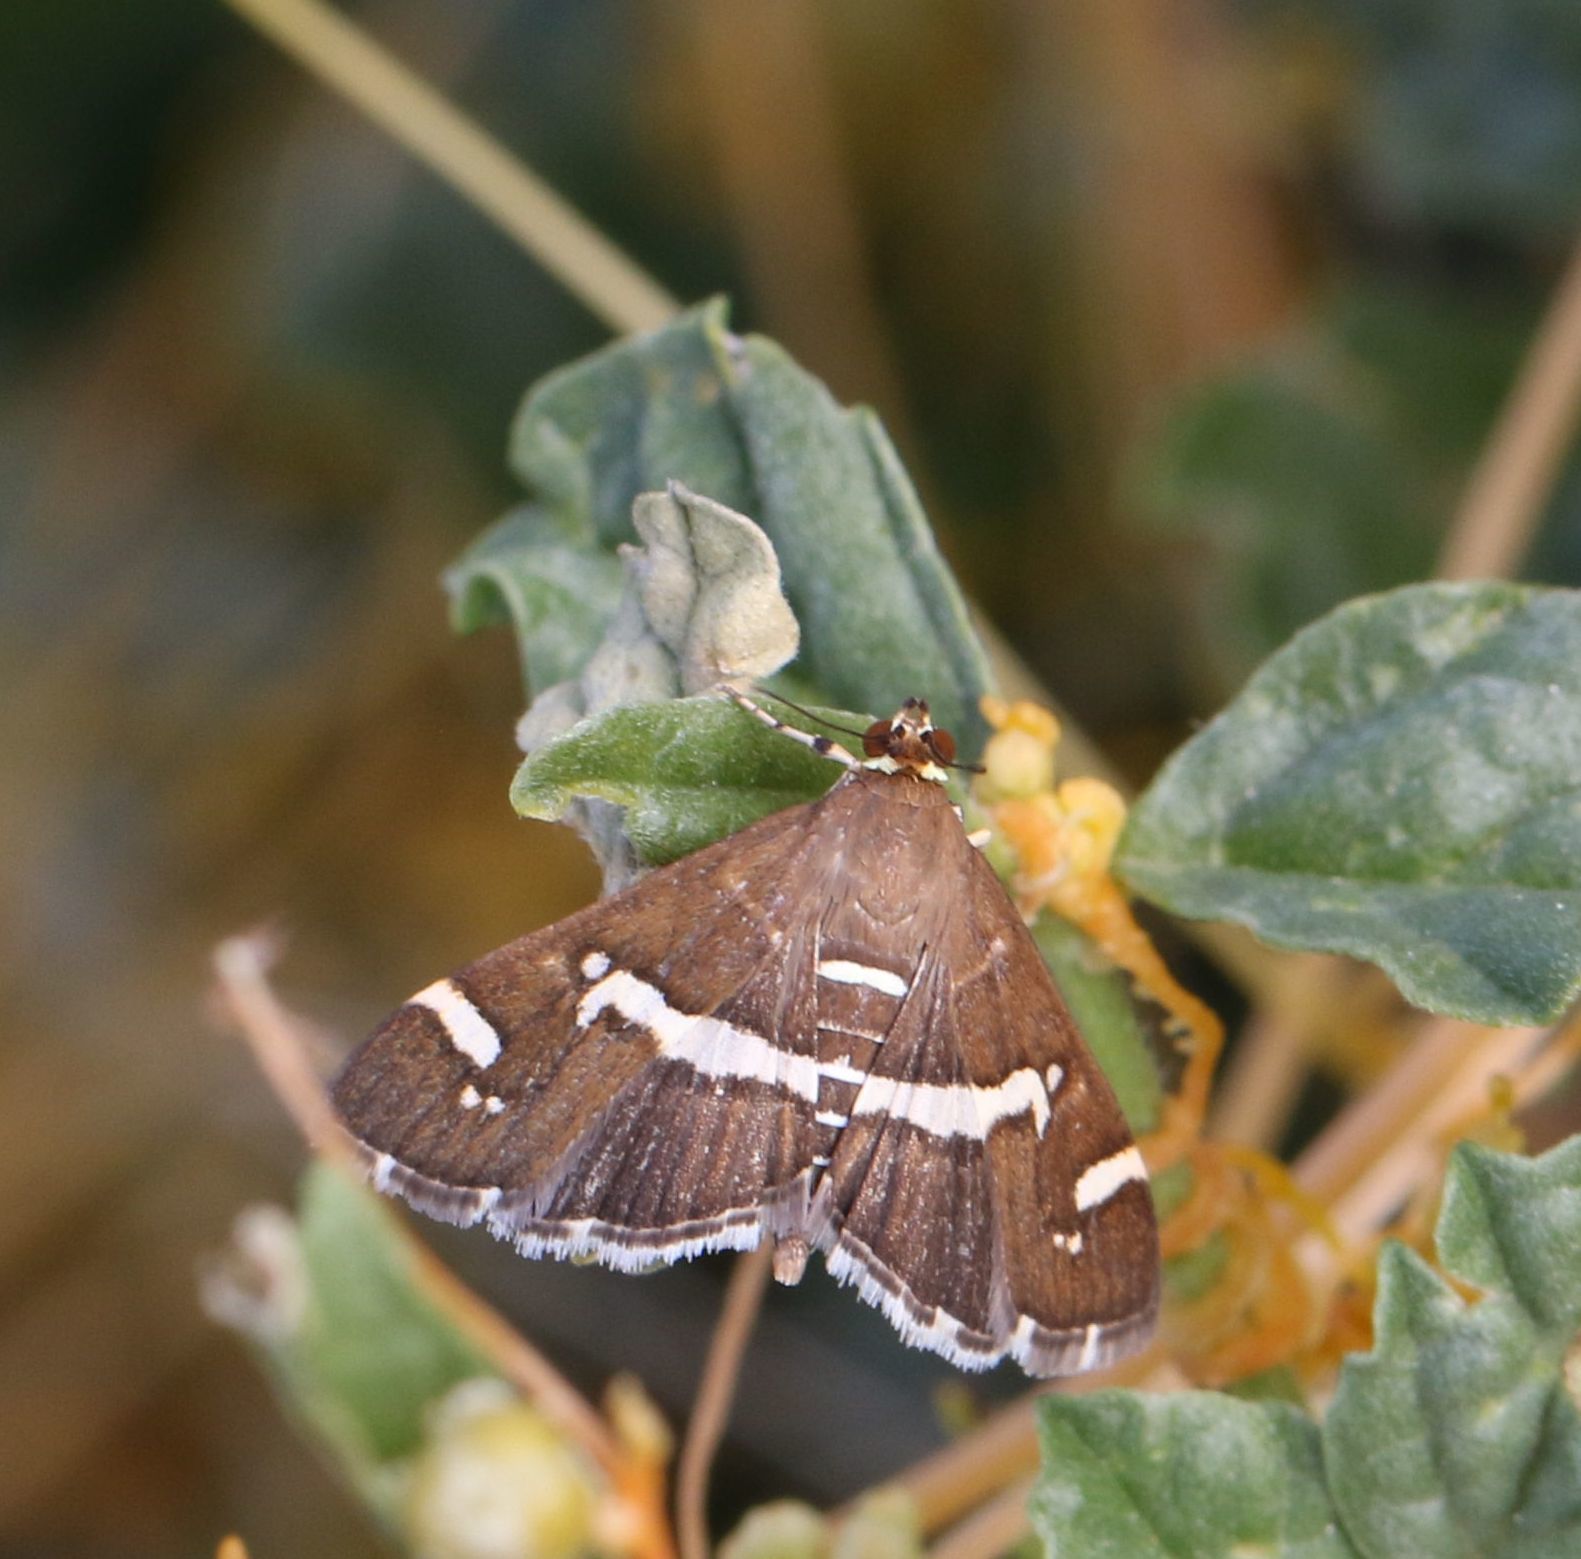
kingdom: Animalia
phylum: Arthropoda
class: Insecta
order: Lepidoptera
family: Crambidae
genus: Spoladea
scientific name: Spoladea recurvalis
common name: Beet webworm moth
